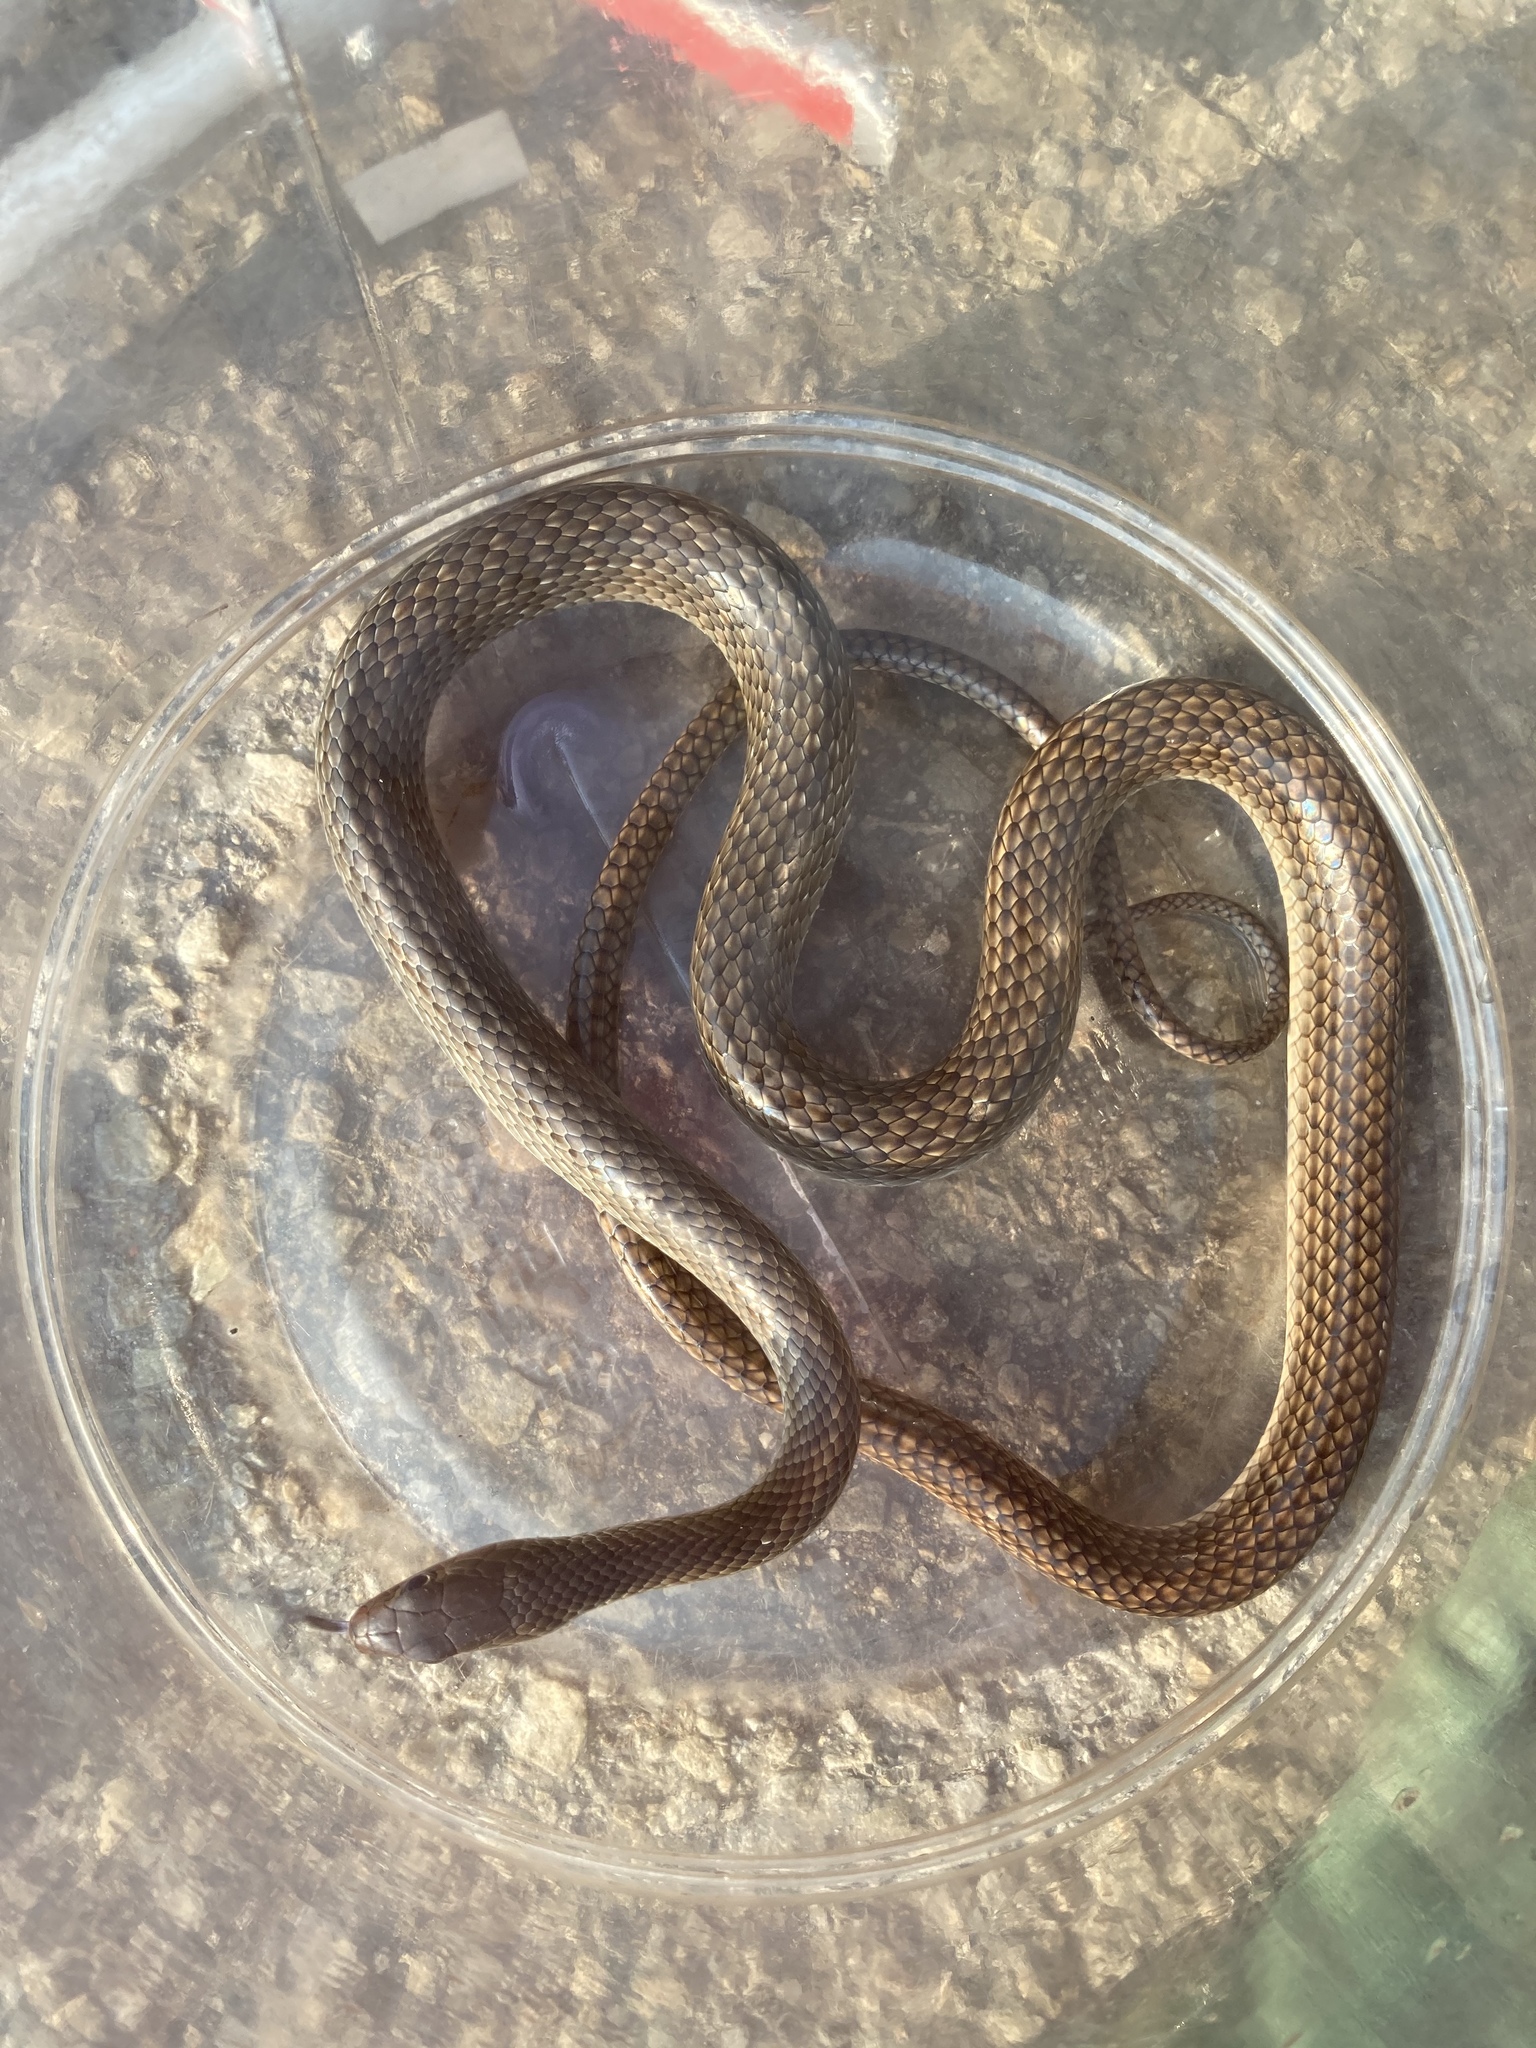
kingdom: Animalia
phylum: Chordata
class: Squamata
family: Colubridae
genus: Ptyas
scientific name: Ptyas korros
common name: Indo-chinese rat snake
